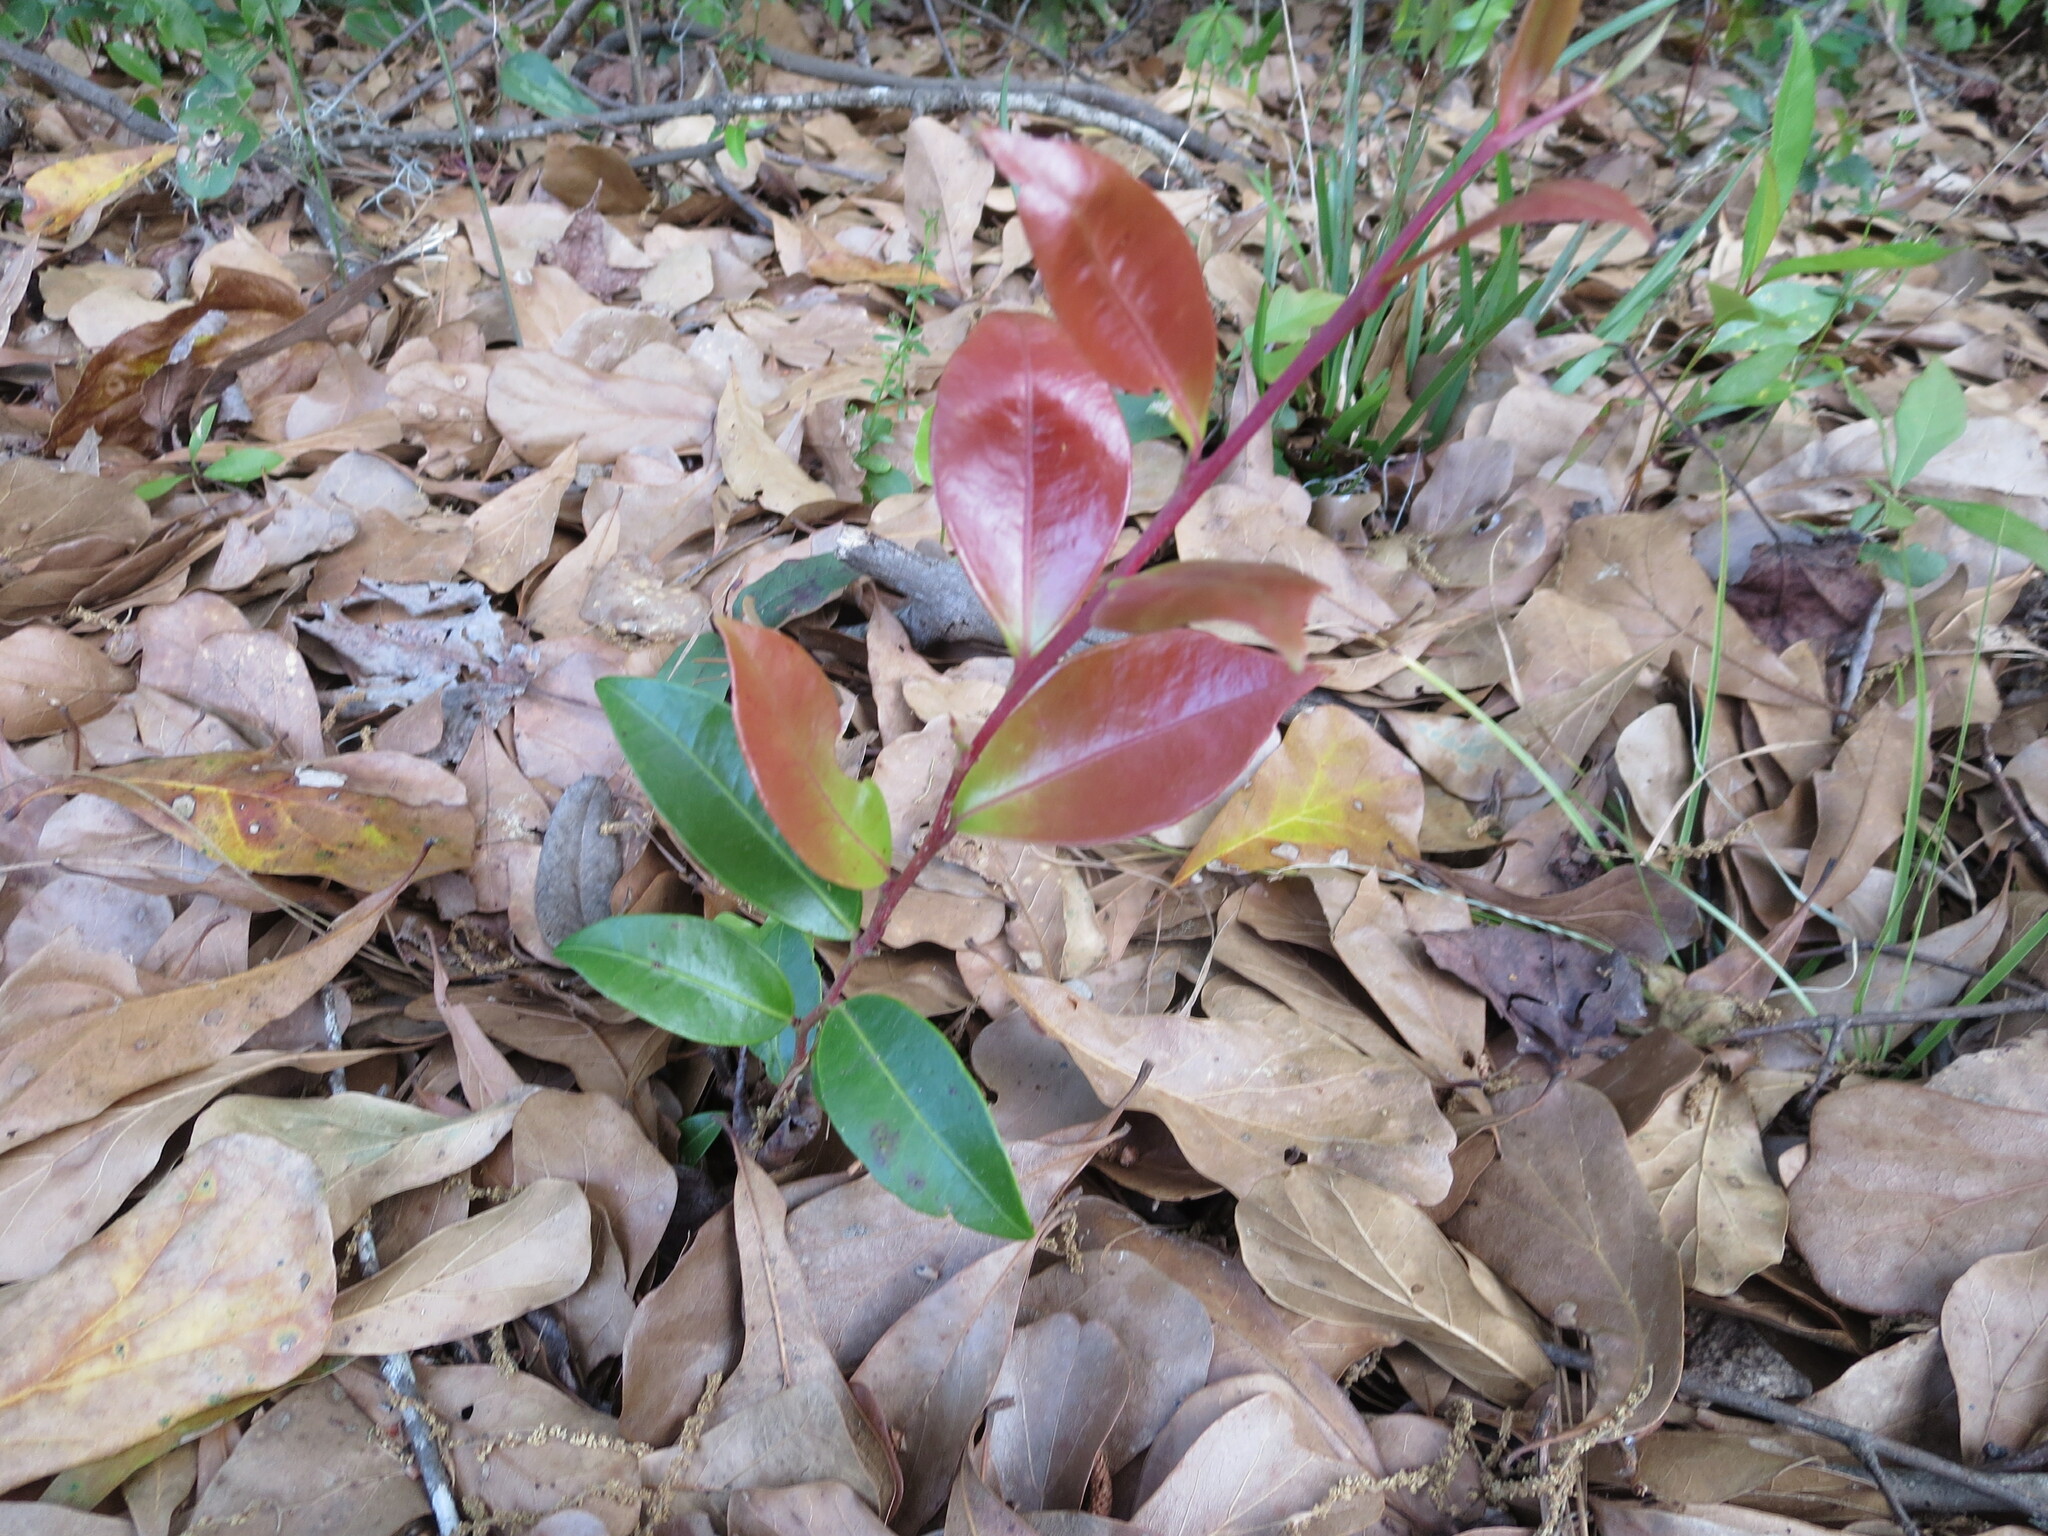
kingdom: Plantae
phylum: Tracheophyta
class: Magnoliopsida
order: Ericales
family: Ericaceae
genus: Lyonia
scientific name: Lyonia lucida
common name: Fetterbush
